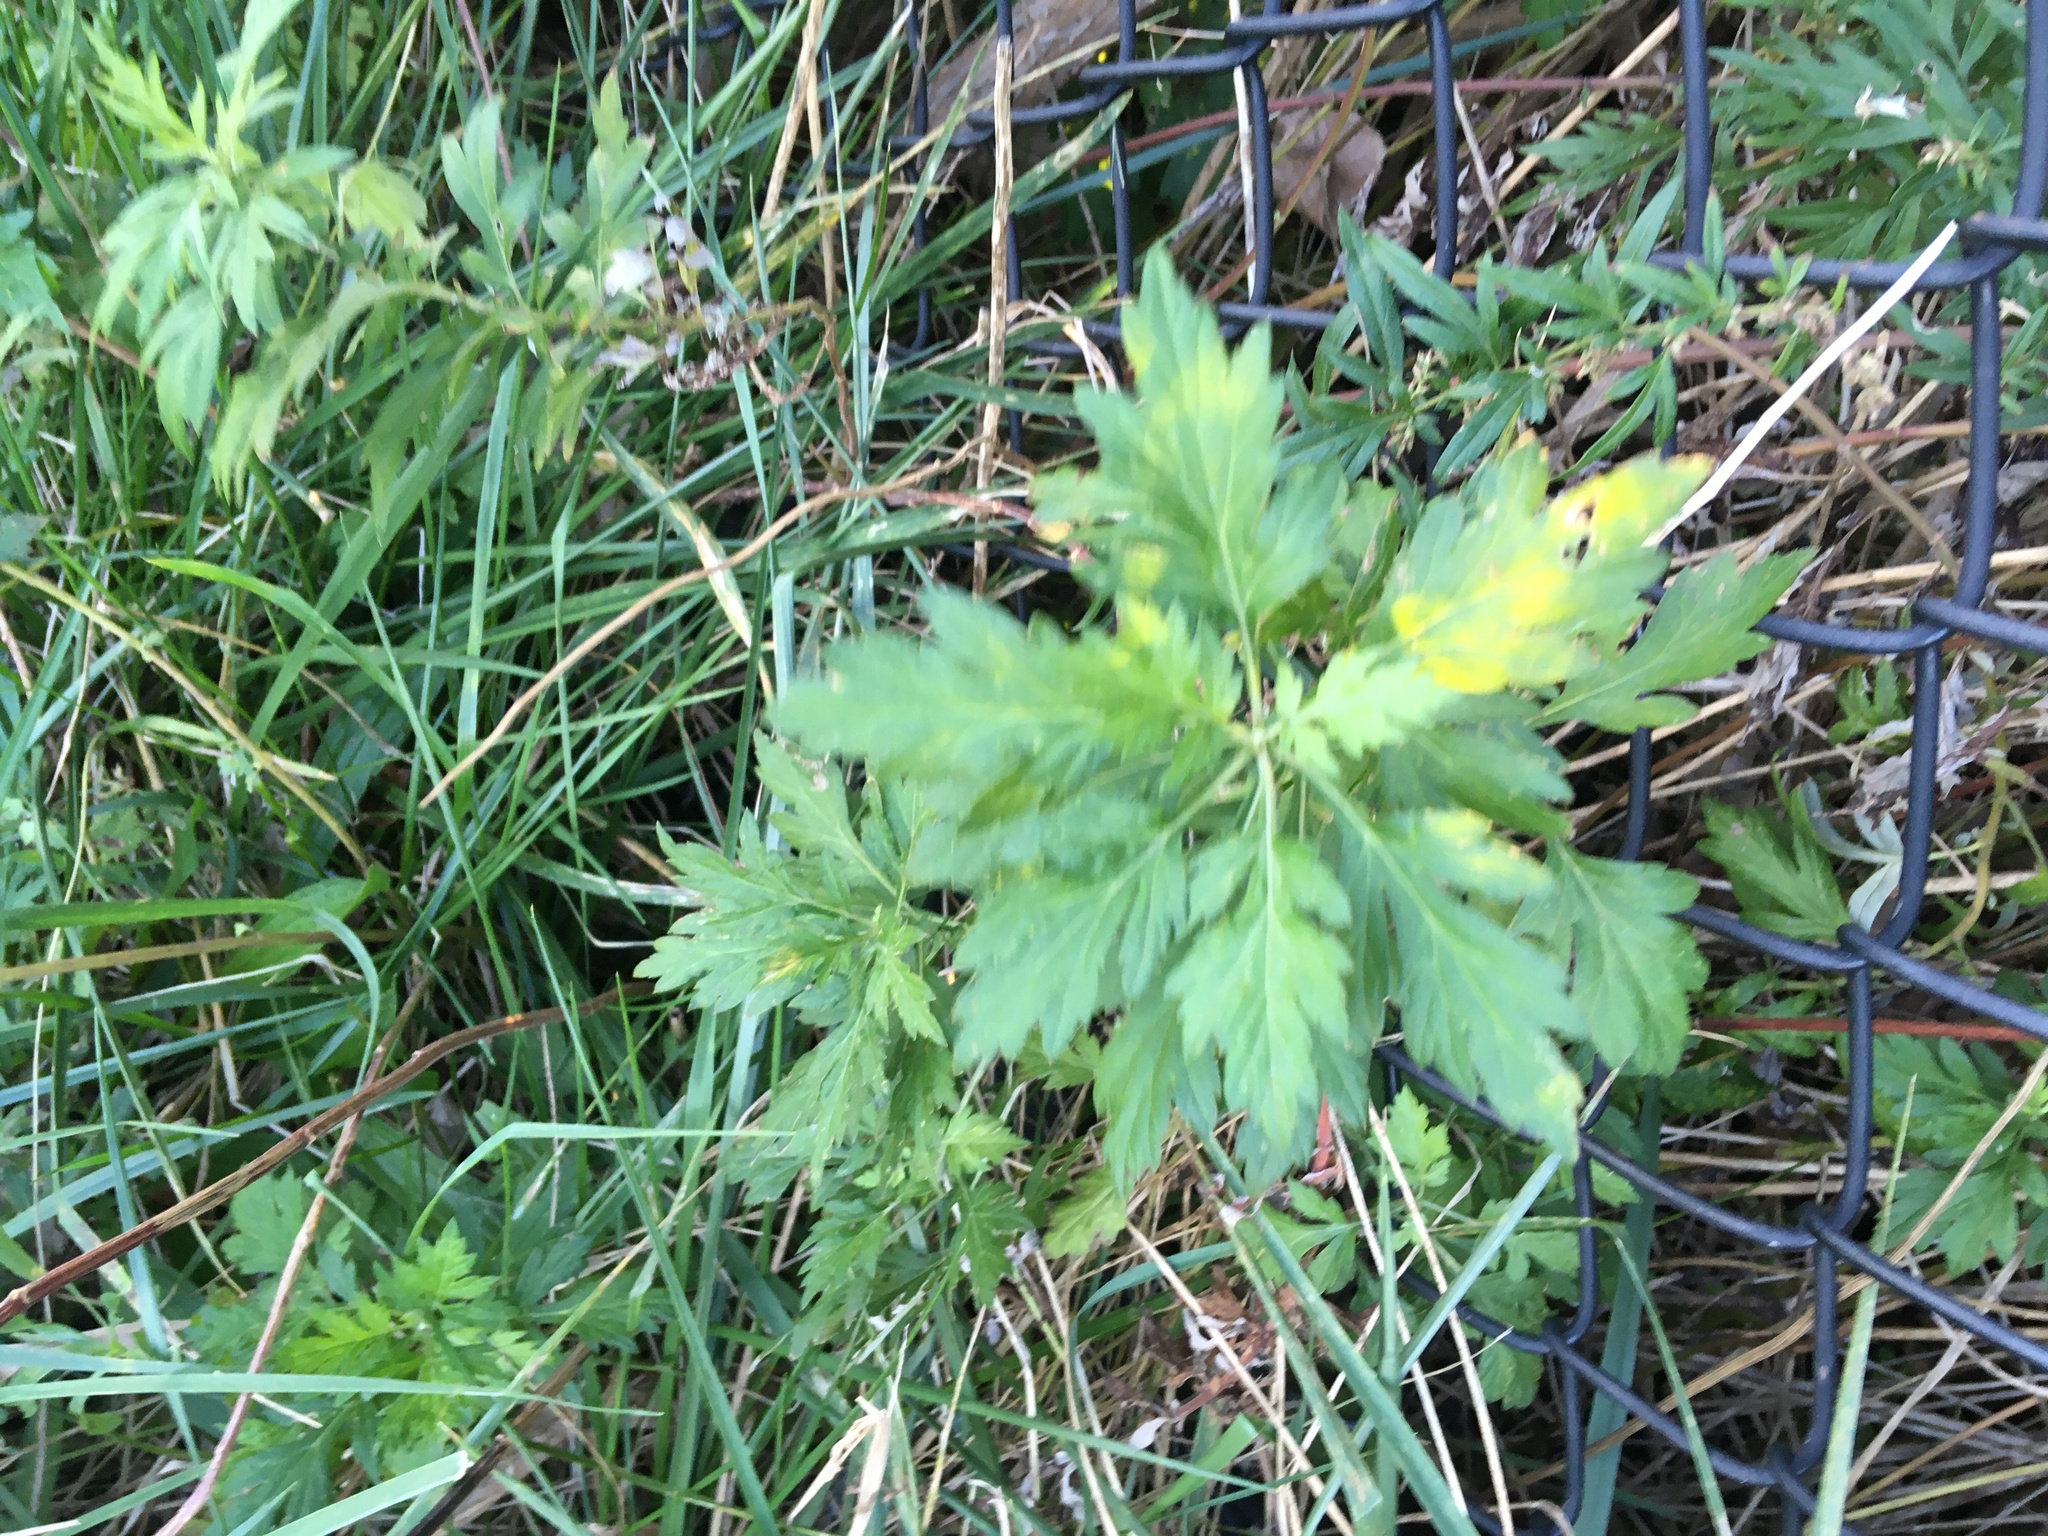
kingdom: Plantae
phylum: Tracheophyta
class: Magnoliopsida
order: Asterales
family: Asteraceae
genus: Artemisia
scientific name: Artemisia vulgaris
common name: Mugwort
